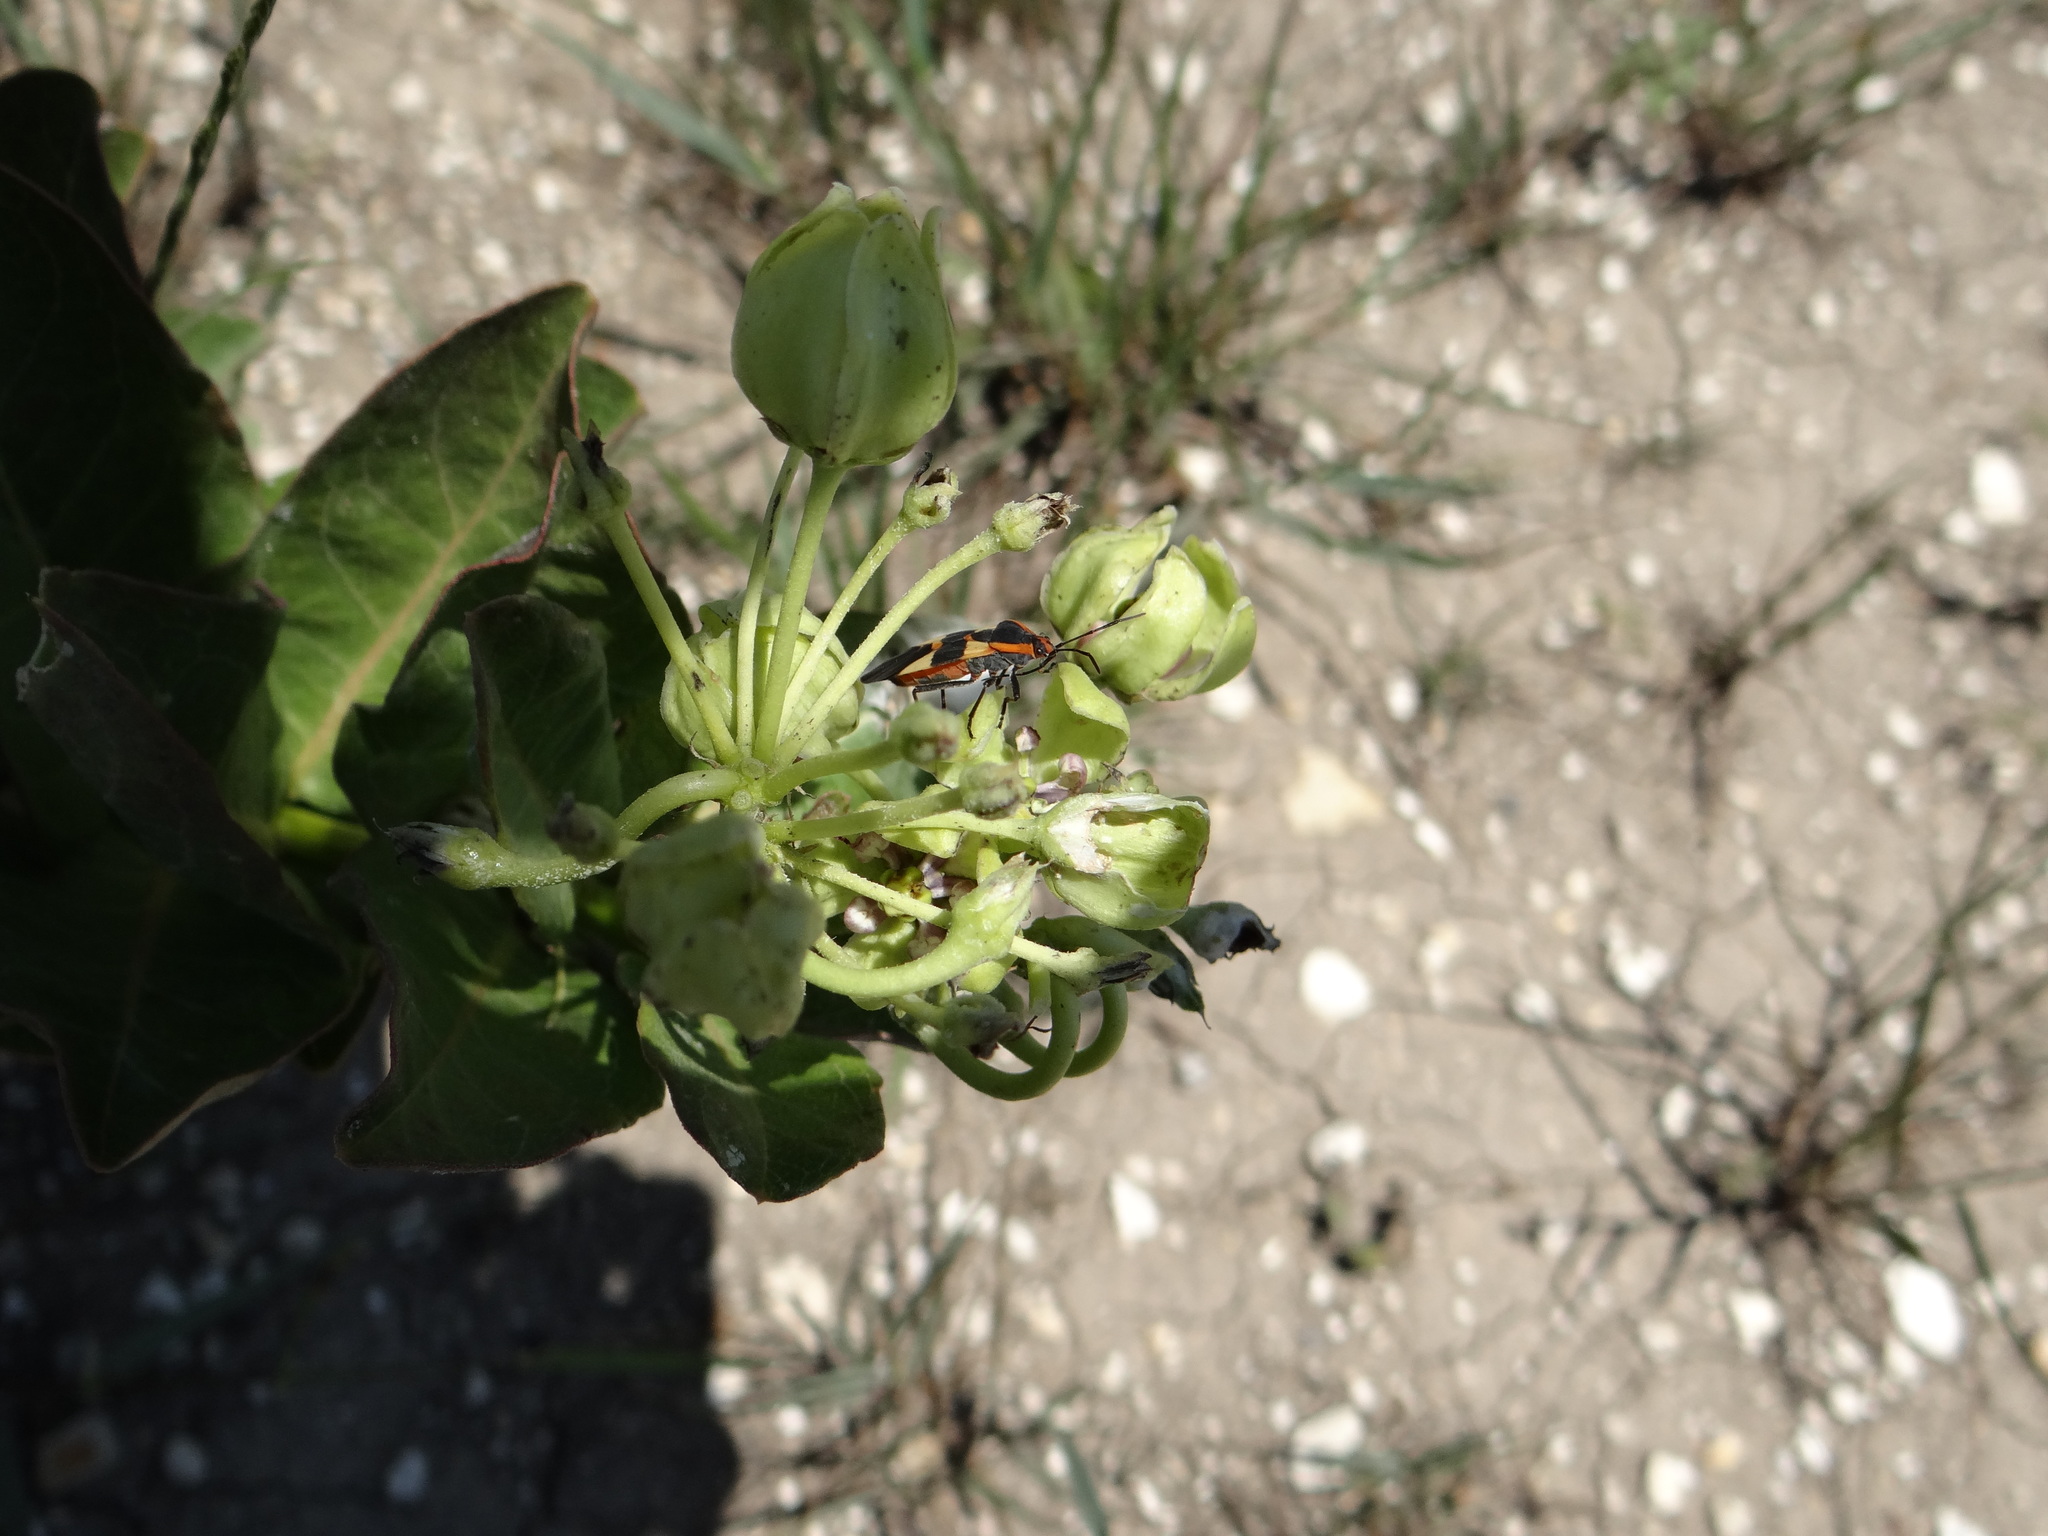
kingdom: Animalia
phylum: Arthropoda
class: Insecta
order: Hemiptera
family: Lygaeidae
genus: Oncopeltus
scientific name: Oncopeltus fasciatus
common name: Large milkweed bug
